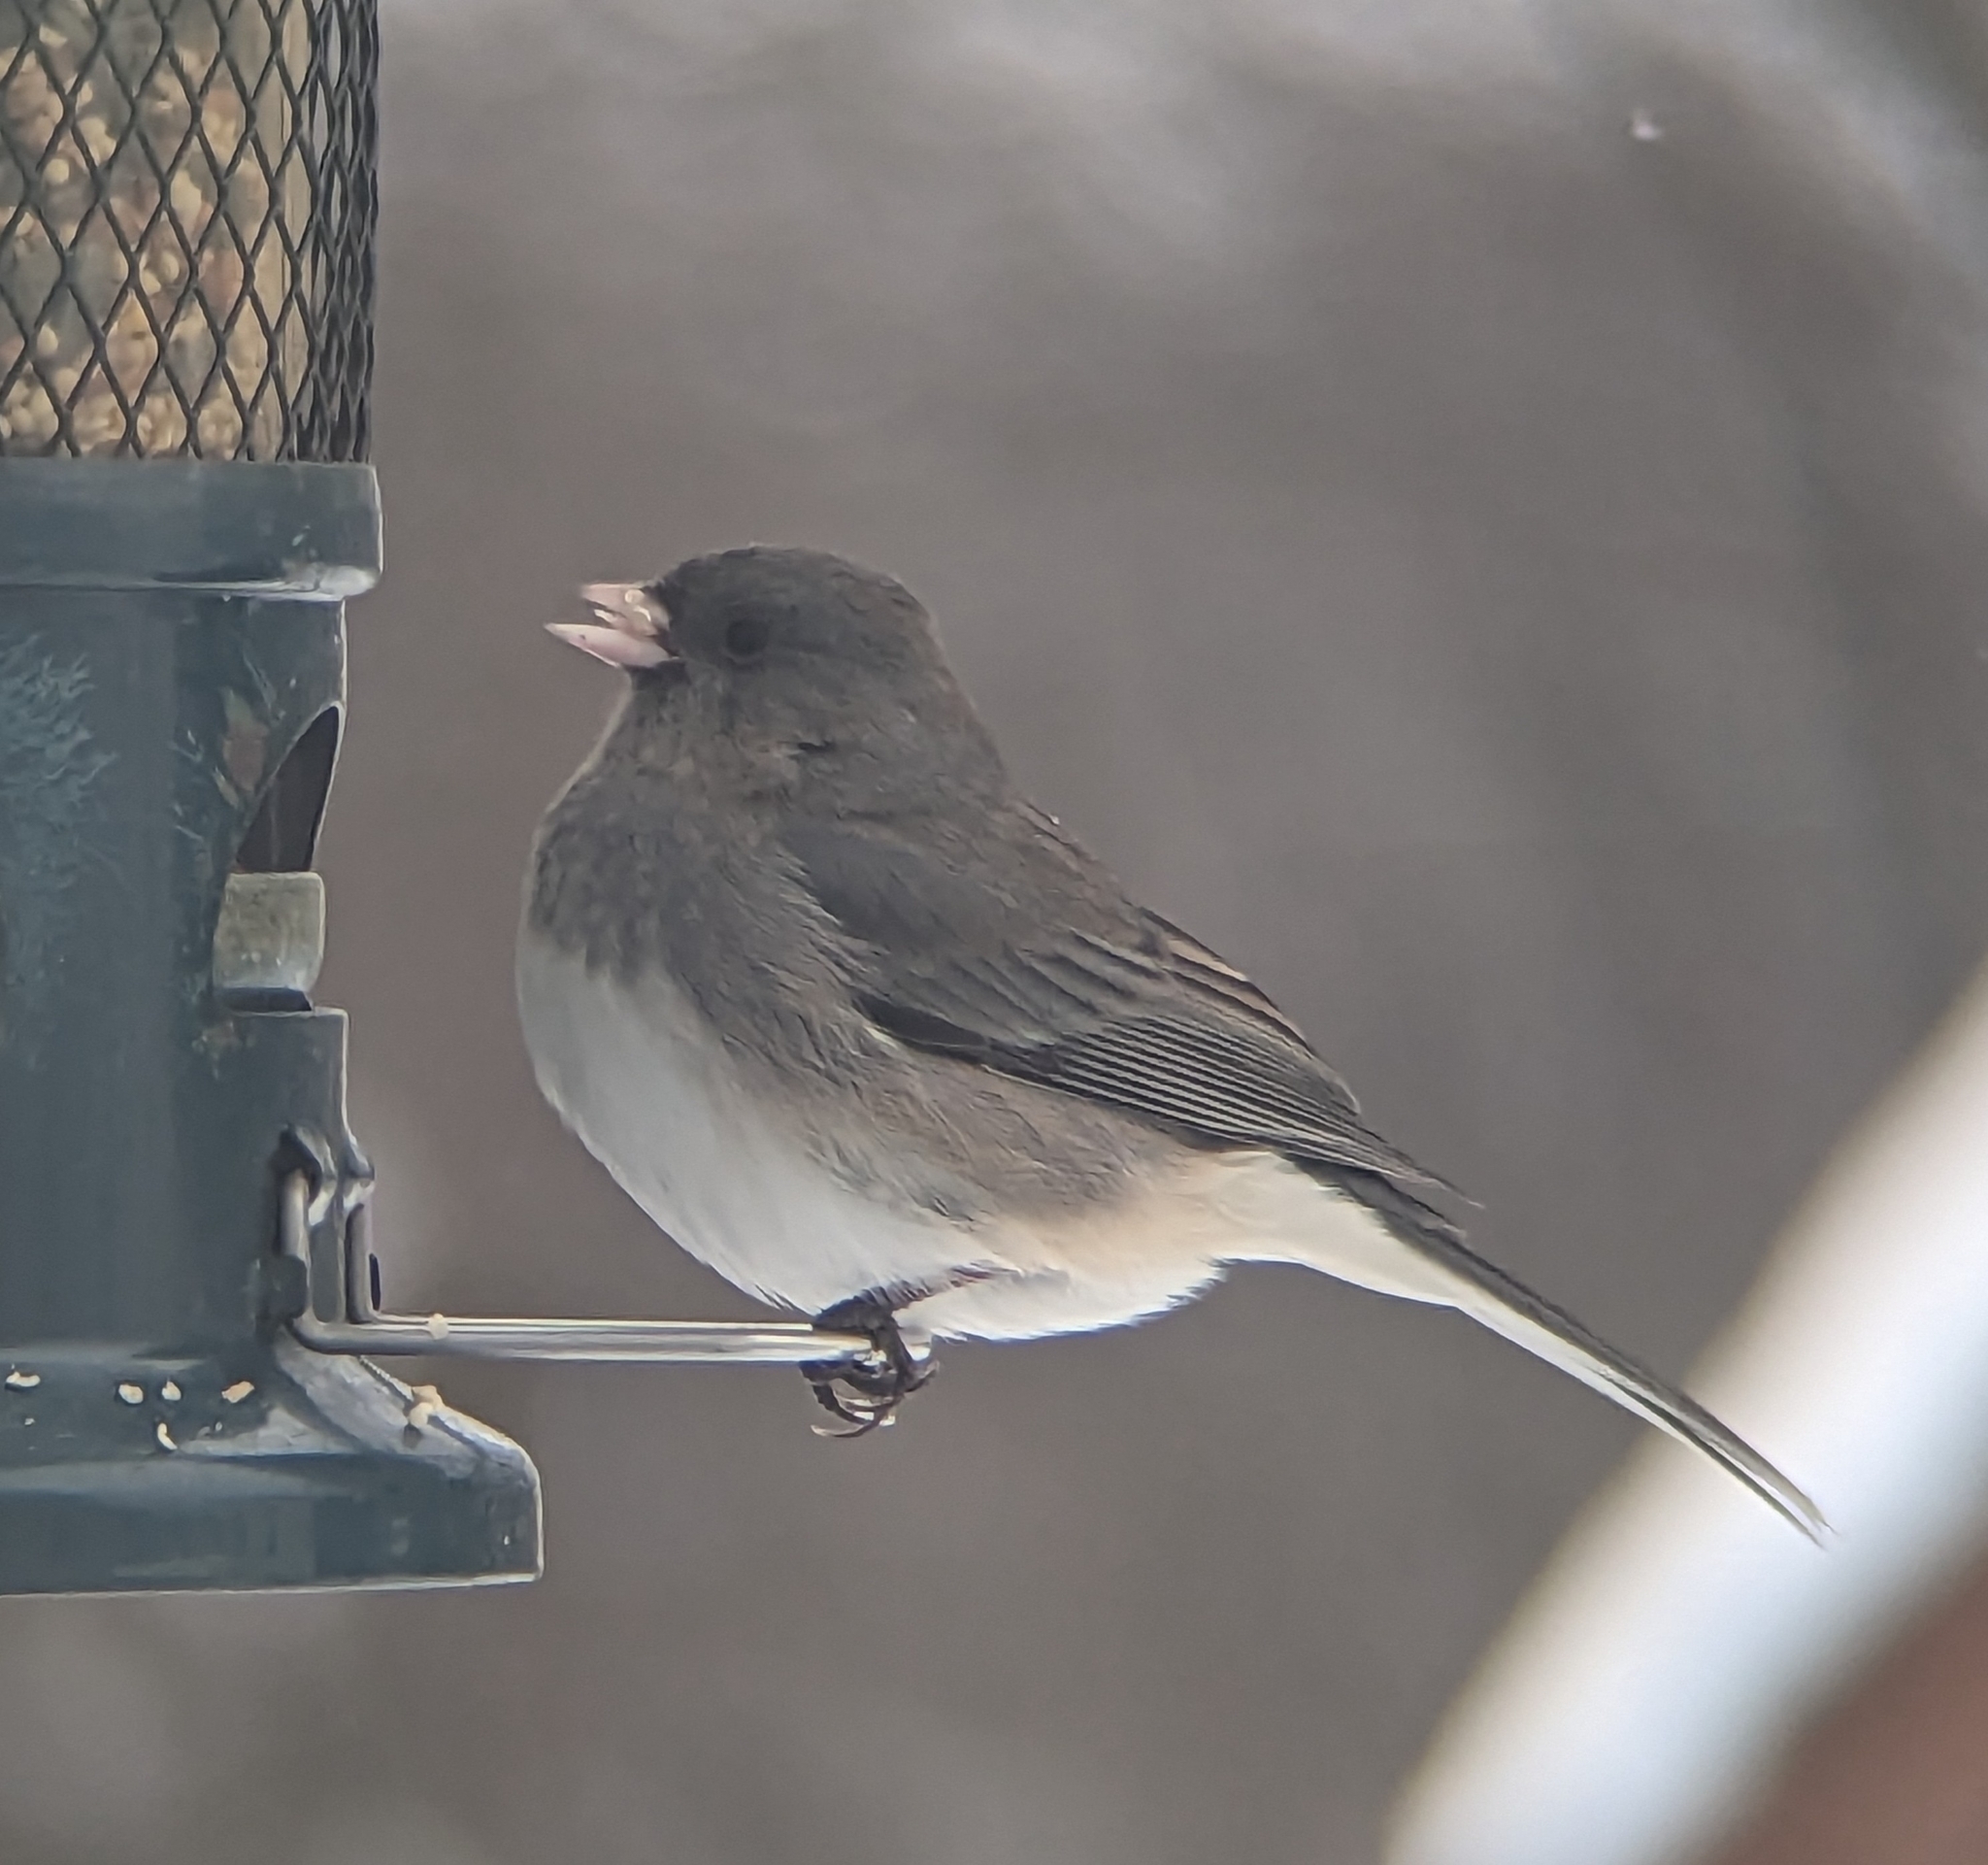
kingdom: Animalia
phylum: Chordata
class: Aves
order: Passeriformes
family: Passerellidae
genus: Junco
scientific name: Junco hyemalis
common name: Dark-eyed junco
